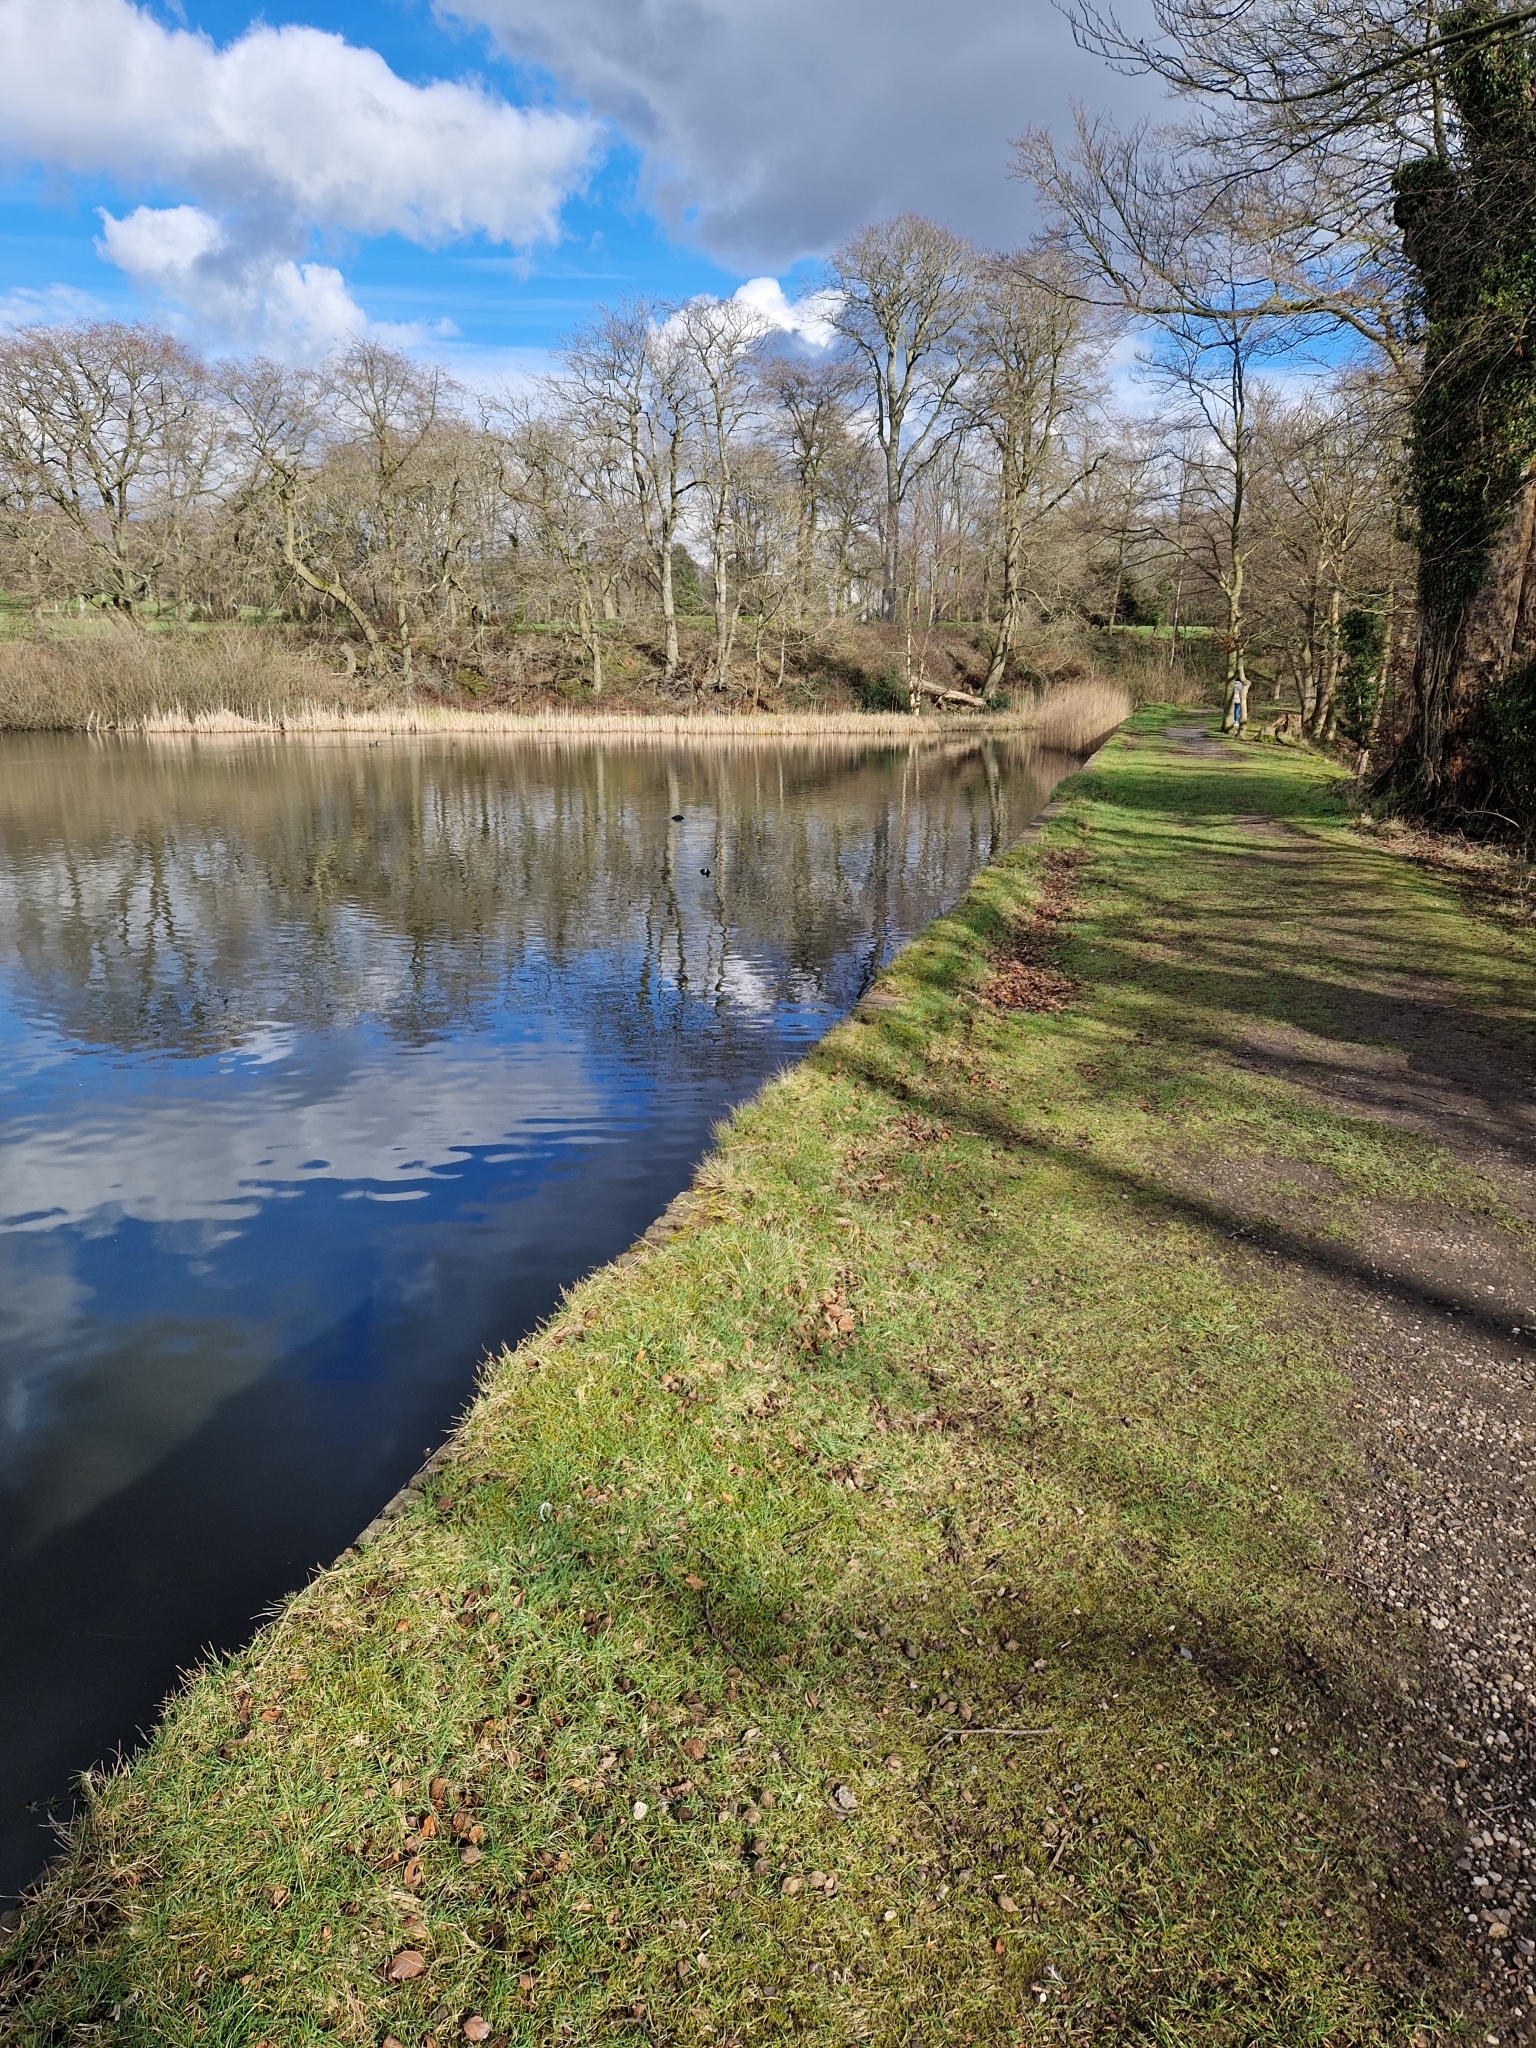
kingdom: Animalia
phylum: Chordata
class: Aves
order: Gruiformes
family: Rallidae
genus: Fulica
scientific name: Fulica atra
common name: Eurasian coot
